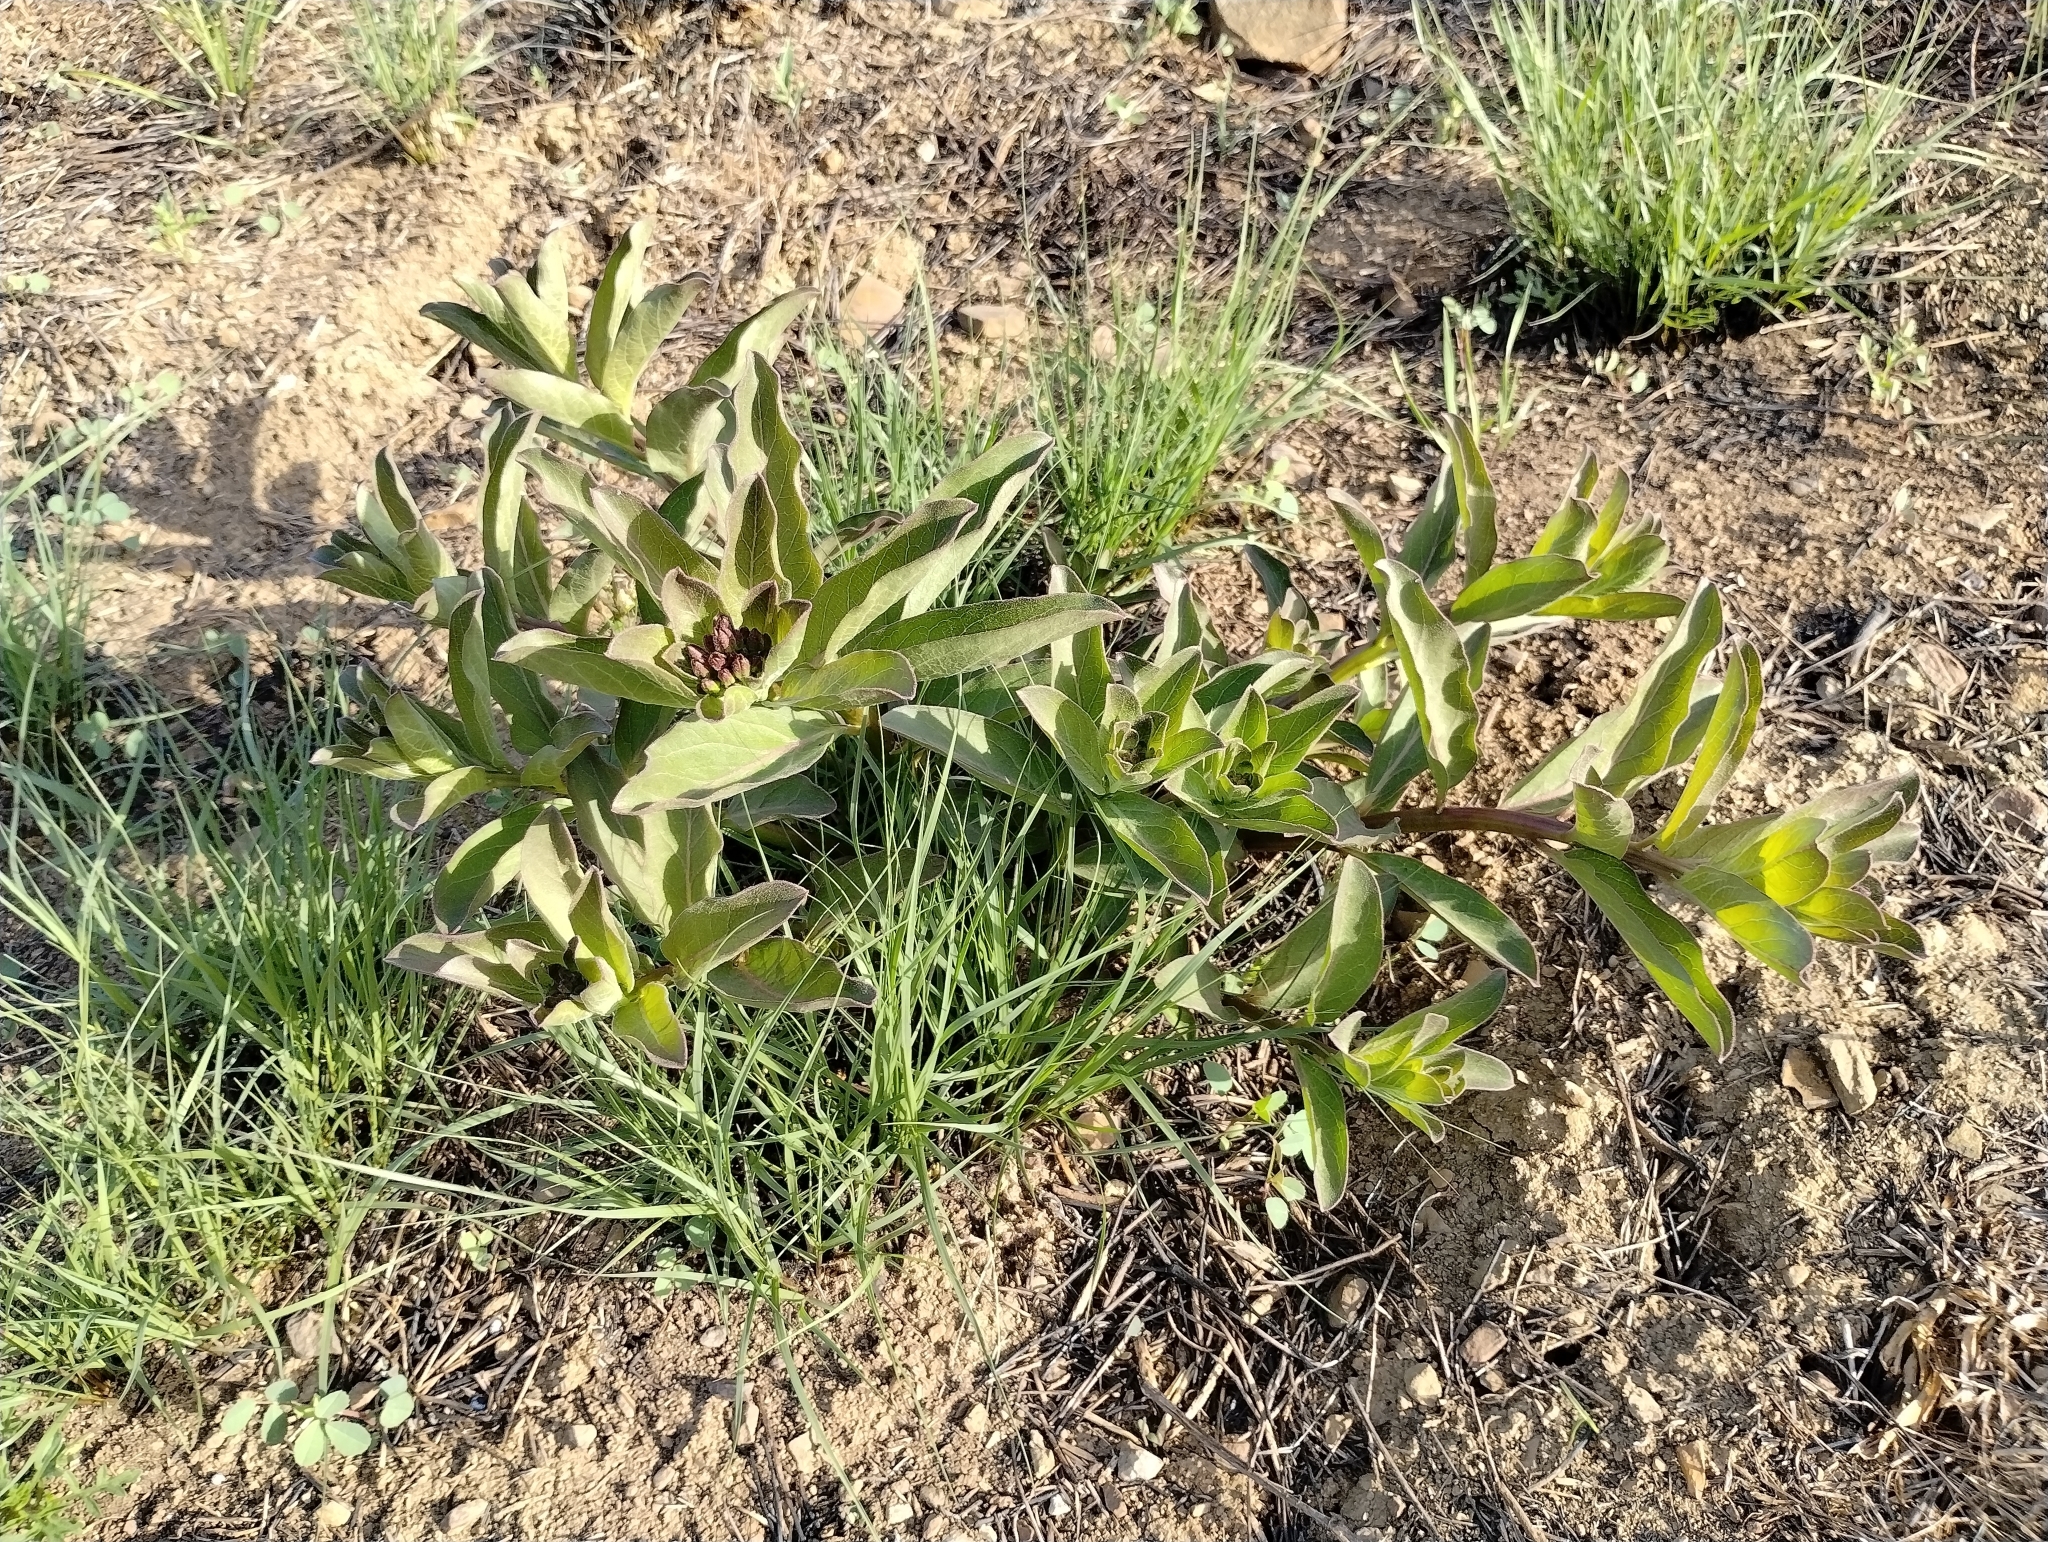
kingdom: Plantae
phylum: Tracheophyta
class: Magnoliopsida
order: Gentianales
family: Apocynaceae
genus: Asclepias
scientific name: Asclepias viridis
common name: Antelope-horns
